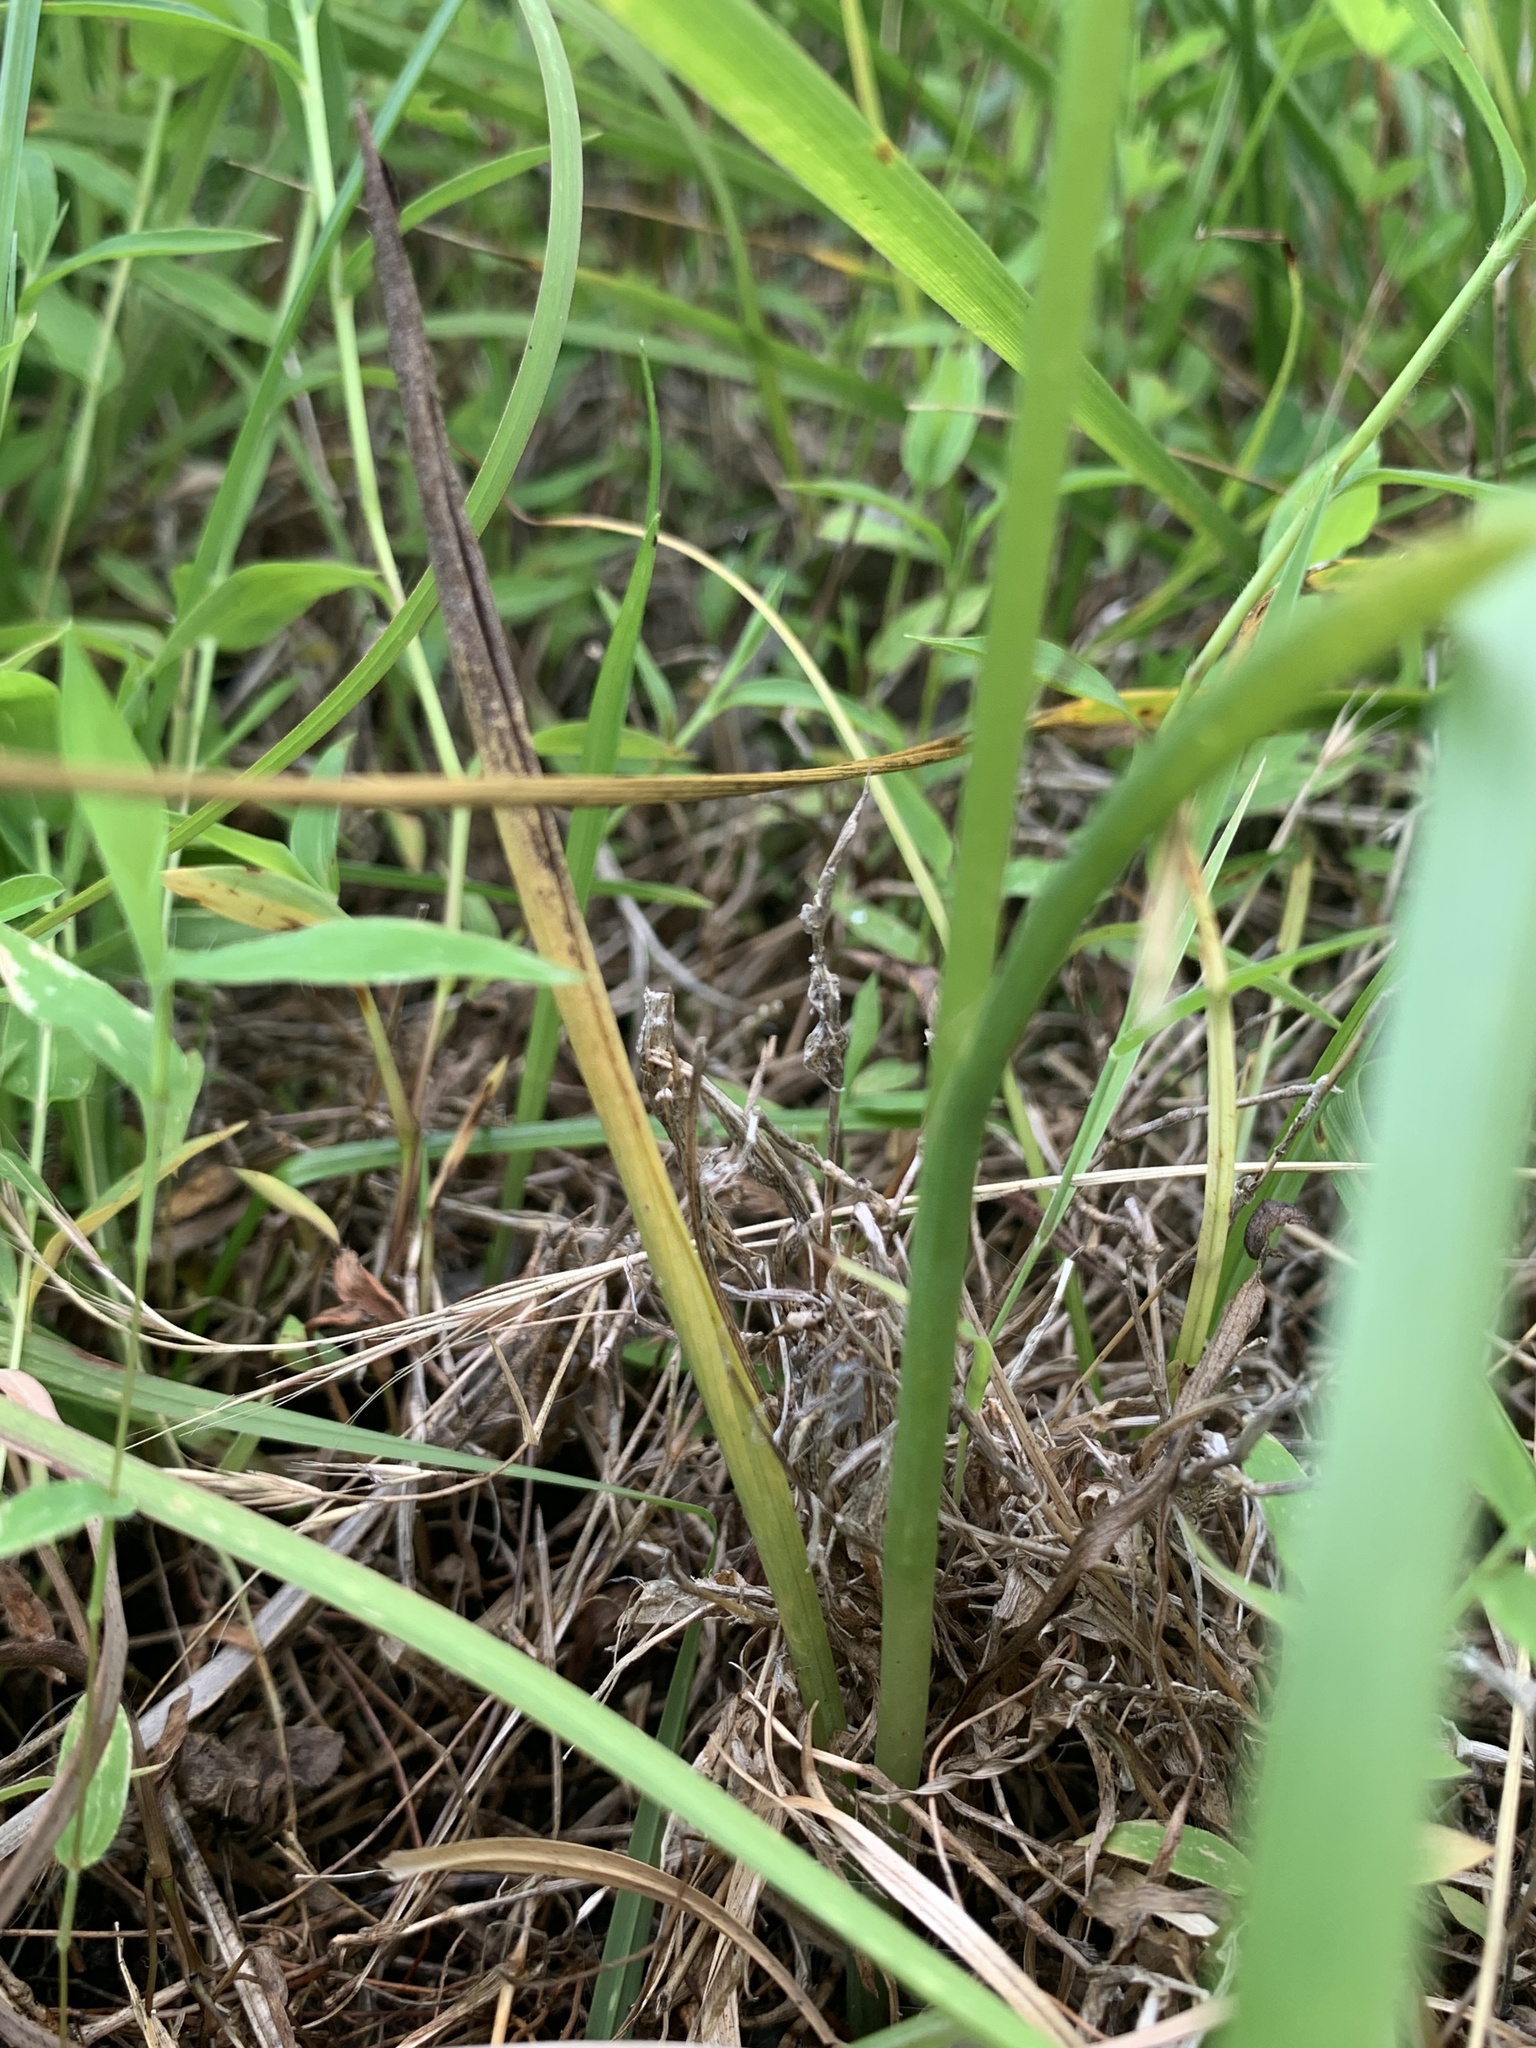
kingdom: Plantae
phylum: Tracheophyta
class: Liliopsida
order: Asparagales
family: Orchidaceae
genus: Spiranthes
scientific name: Spiranthes vernalis
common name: Spring ladies'-tresses
